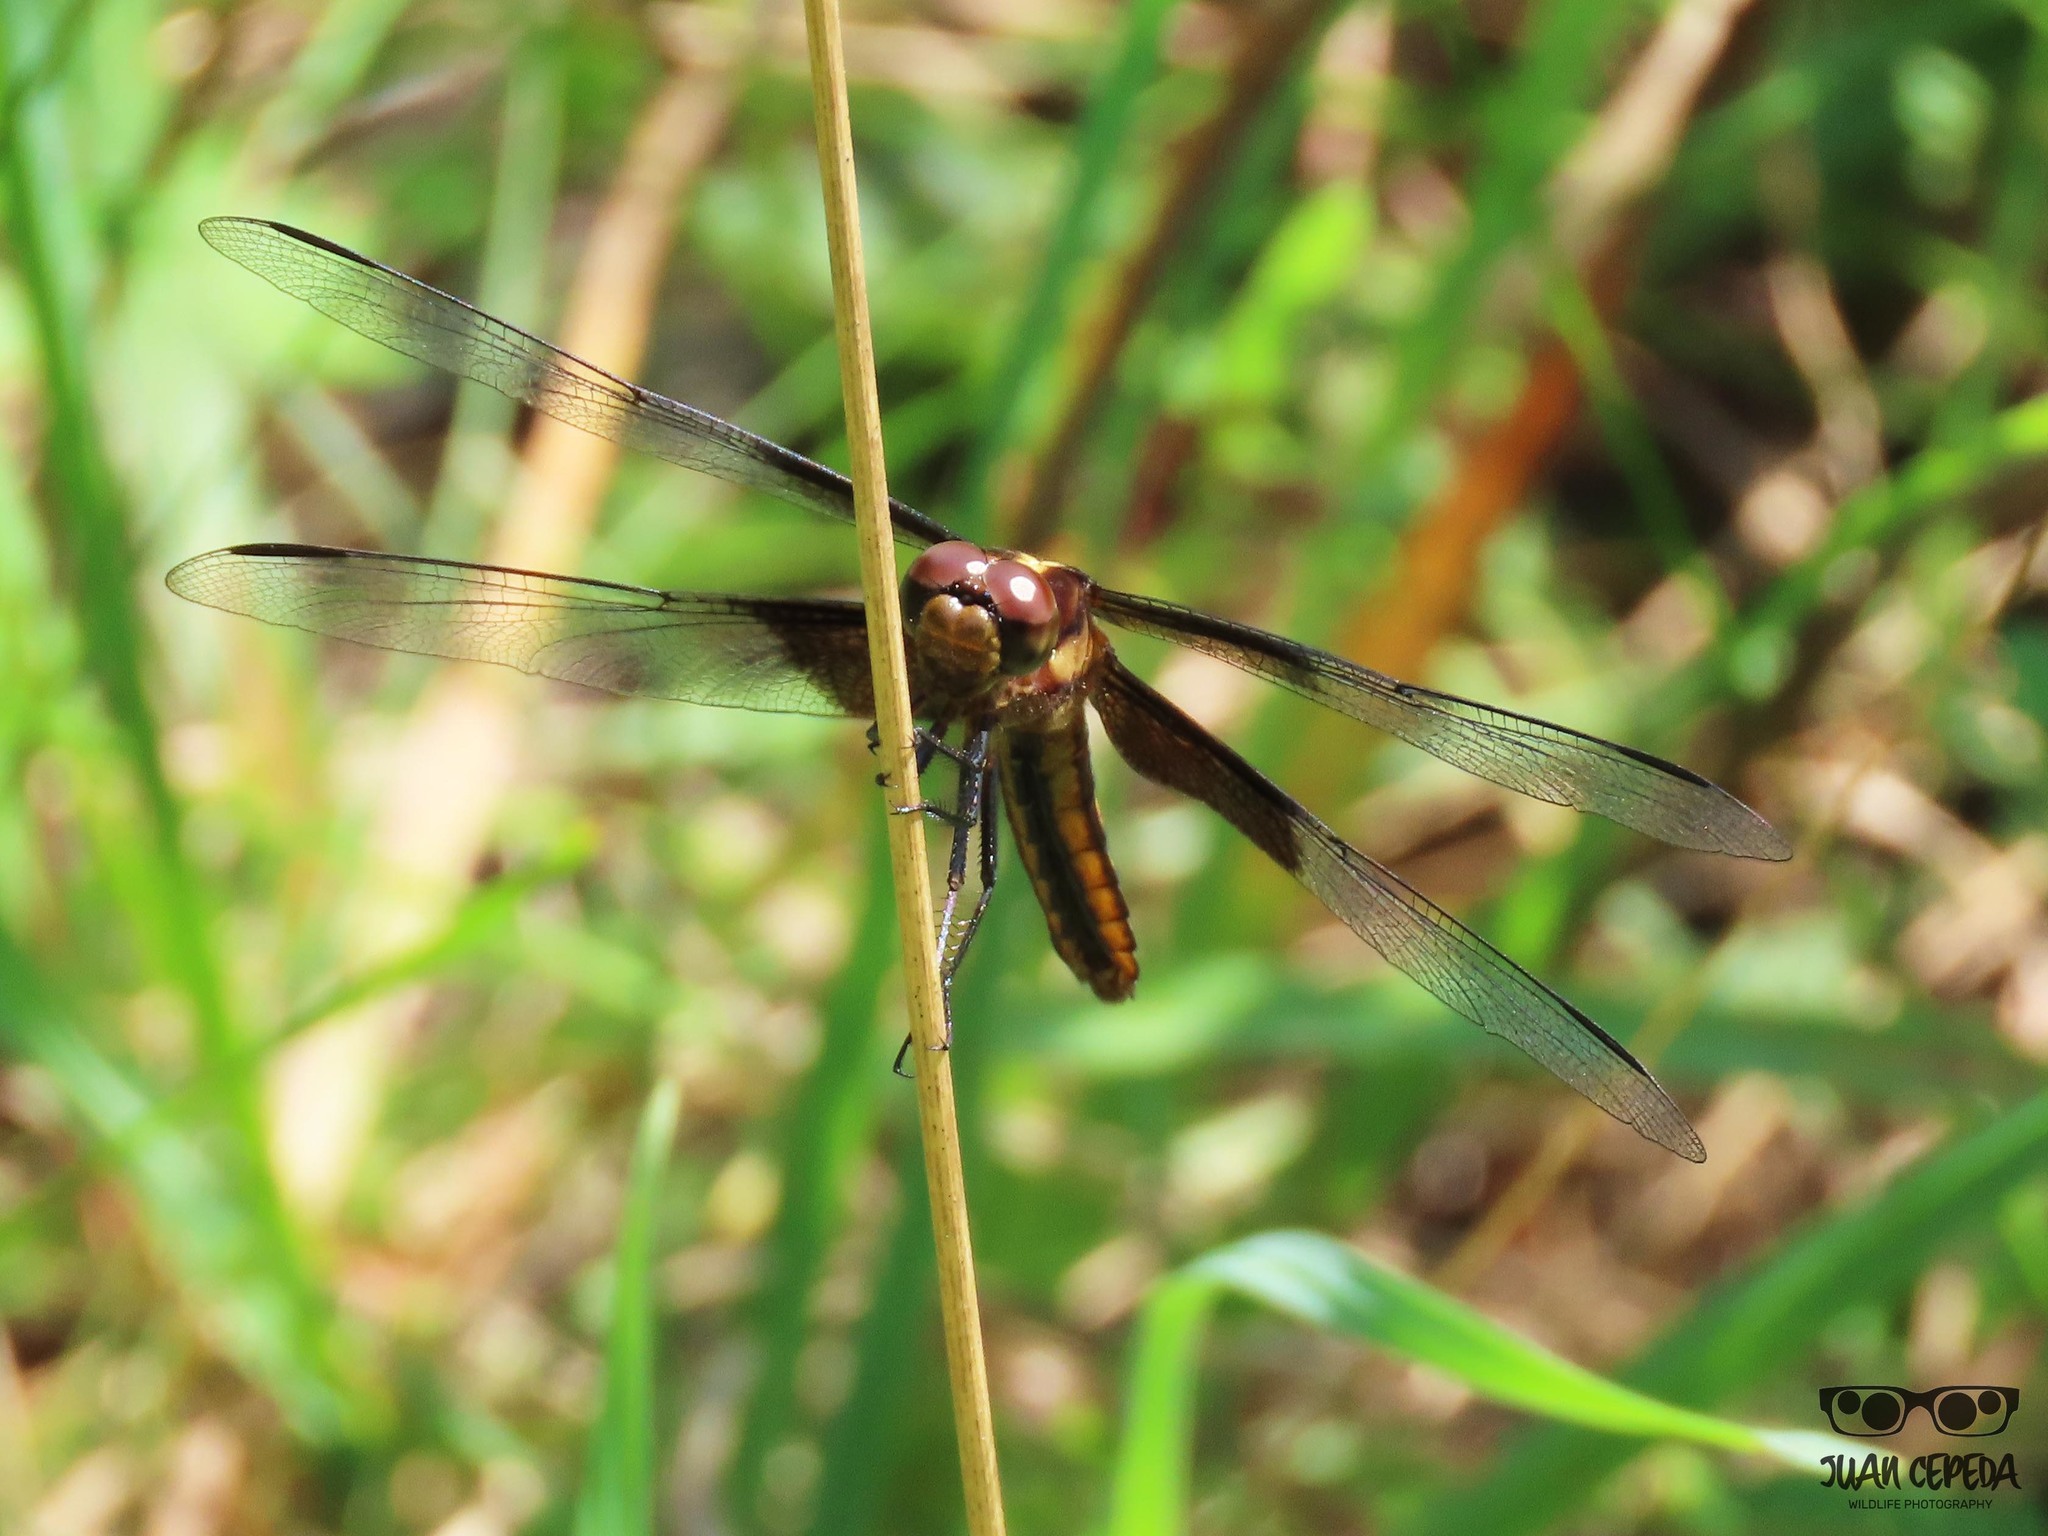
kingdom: Animalia
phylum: Arthropoda
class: Insecta
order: Odonata
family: Libellulidae
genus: Libellula
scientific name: Libellula luctuosa
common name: Widow skimmer
